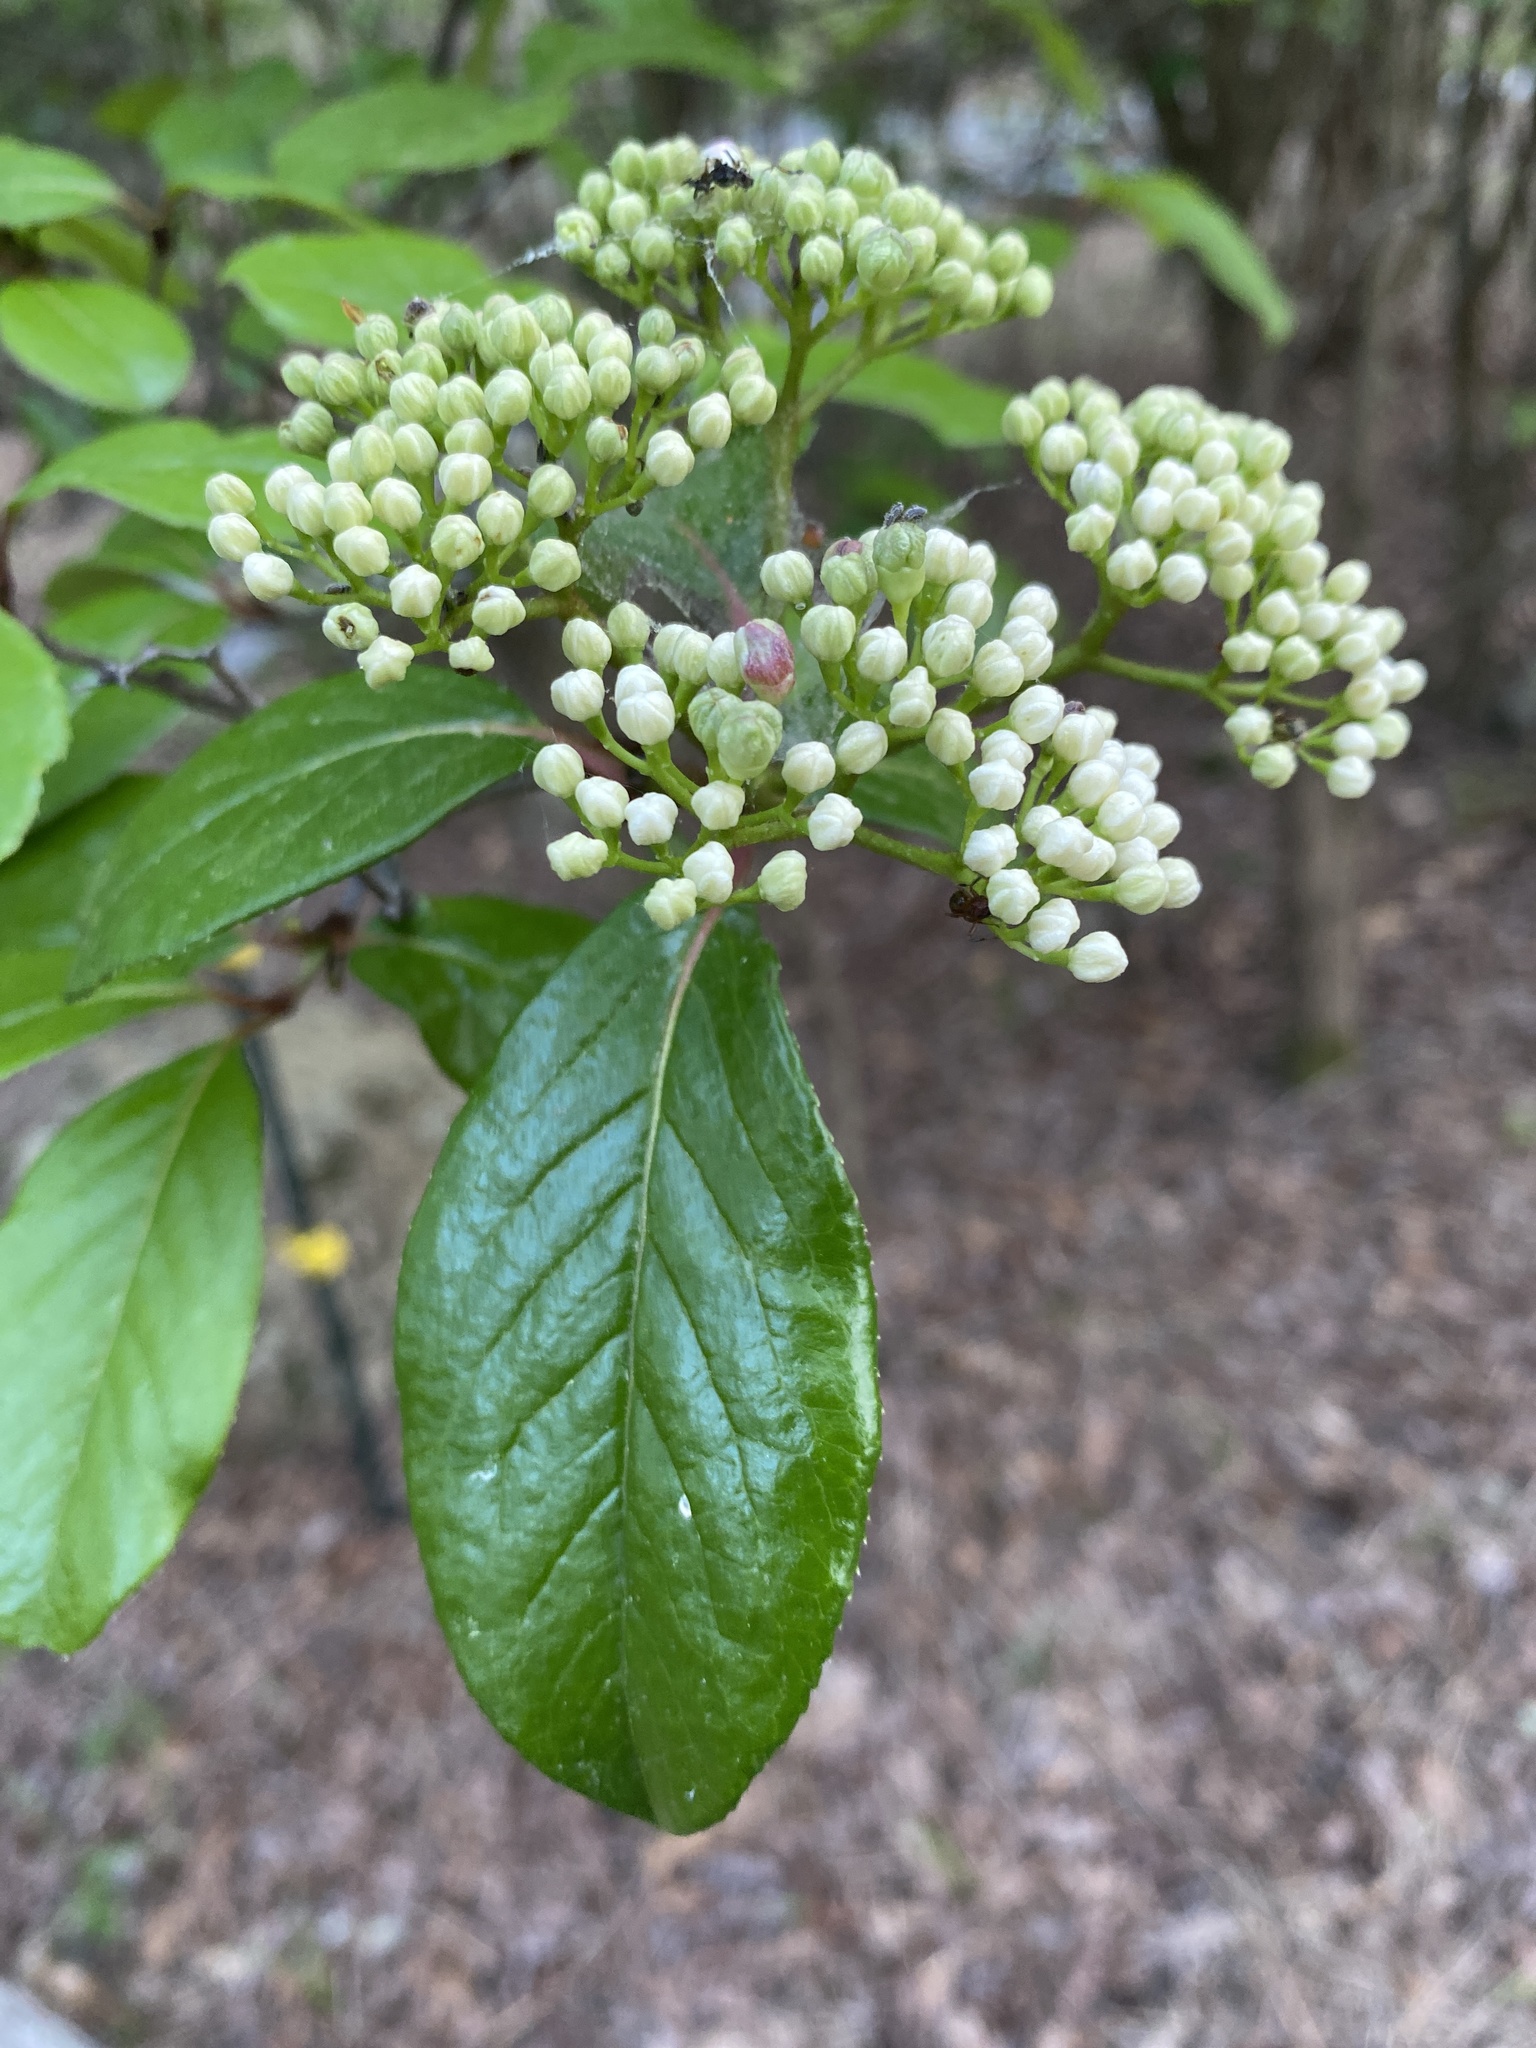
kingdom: Plantae
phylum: Tracheophyta
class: Magnoliopsida
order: Dipsacales
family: Viburnaceae
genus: Viburnum
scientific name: Viburnum rufidulum
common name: Blue haw
